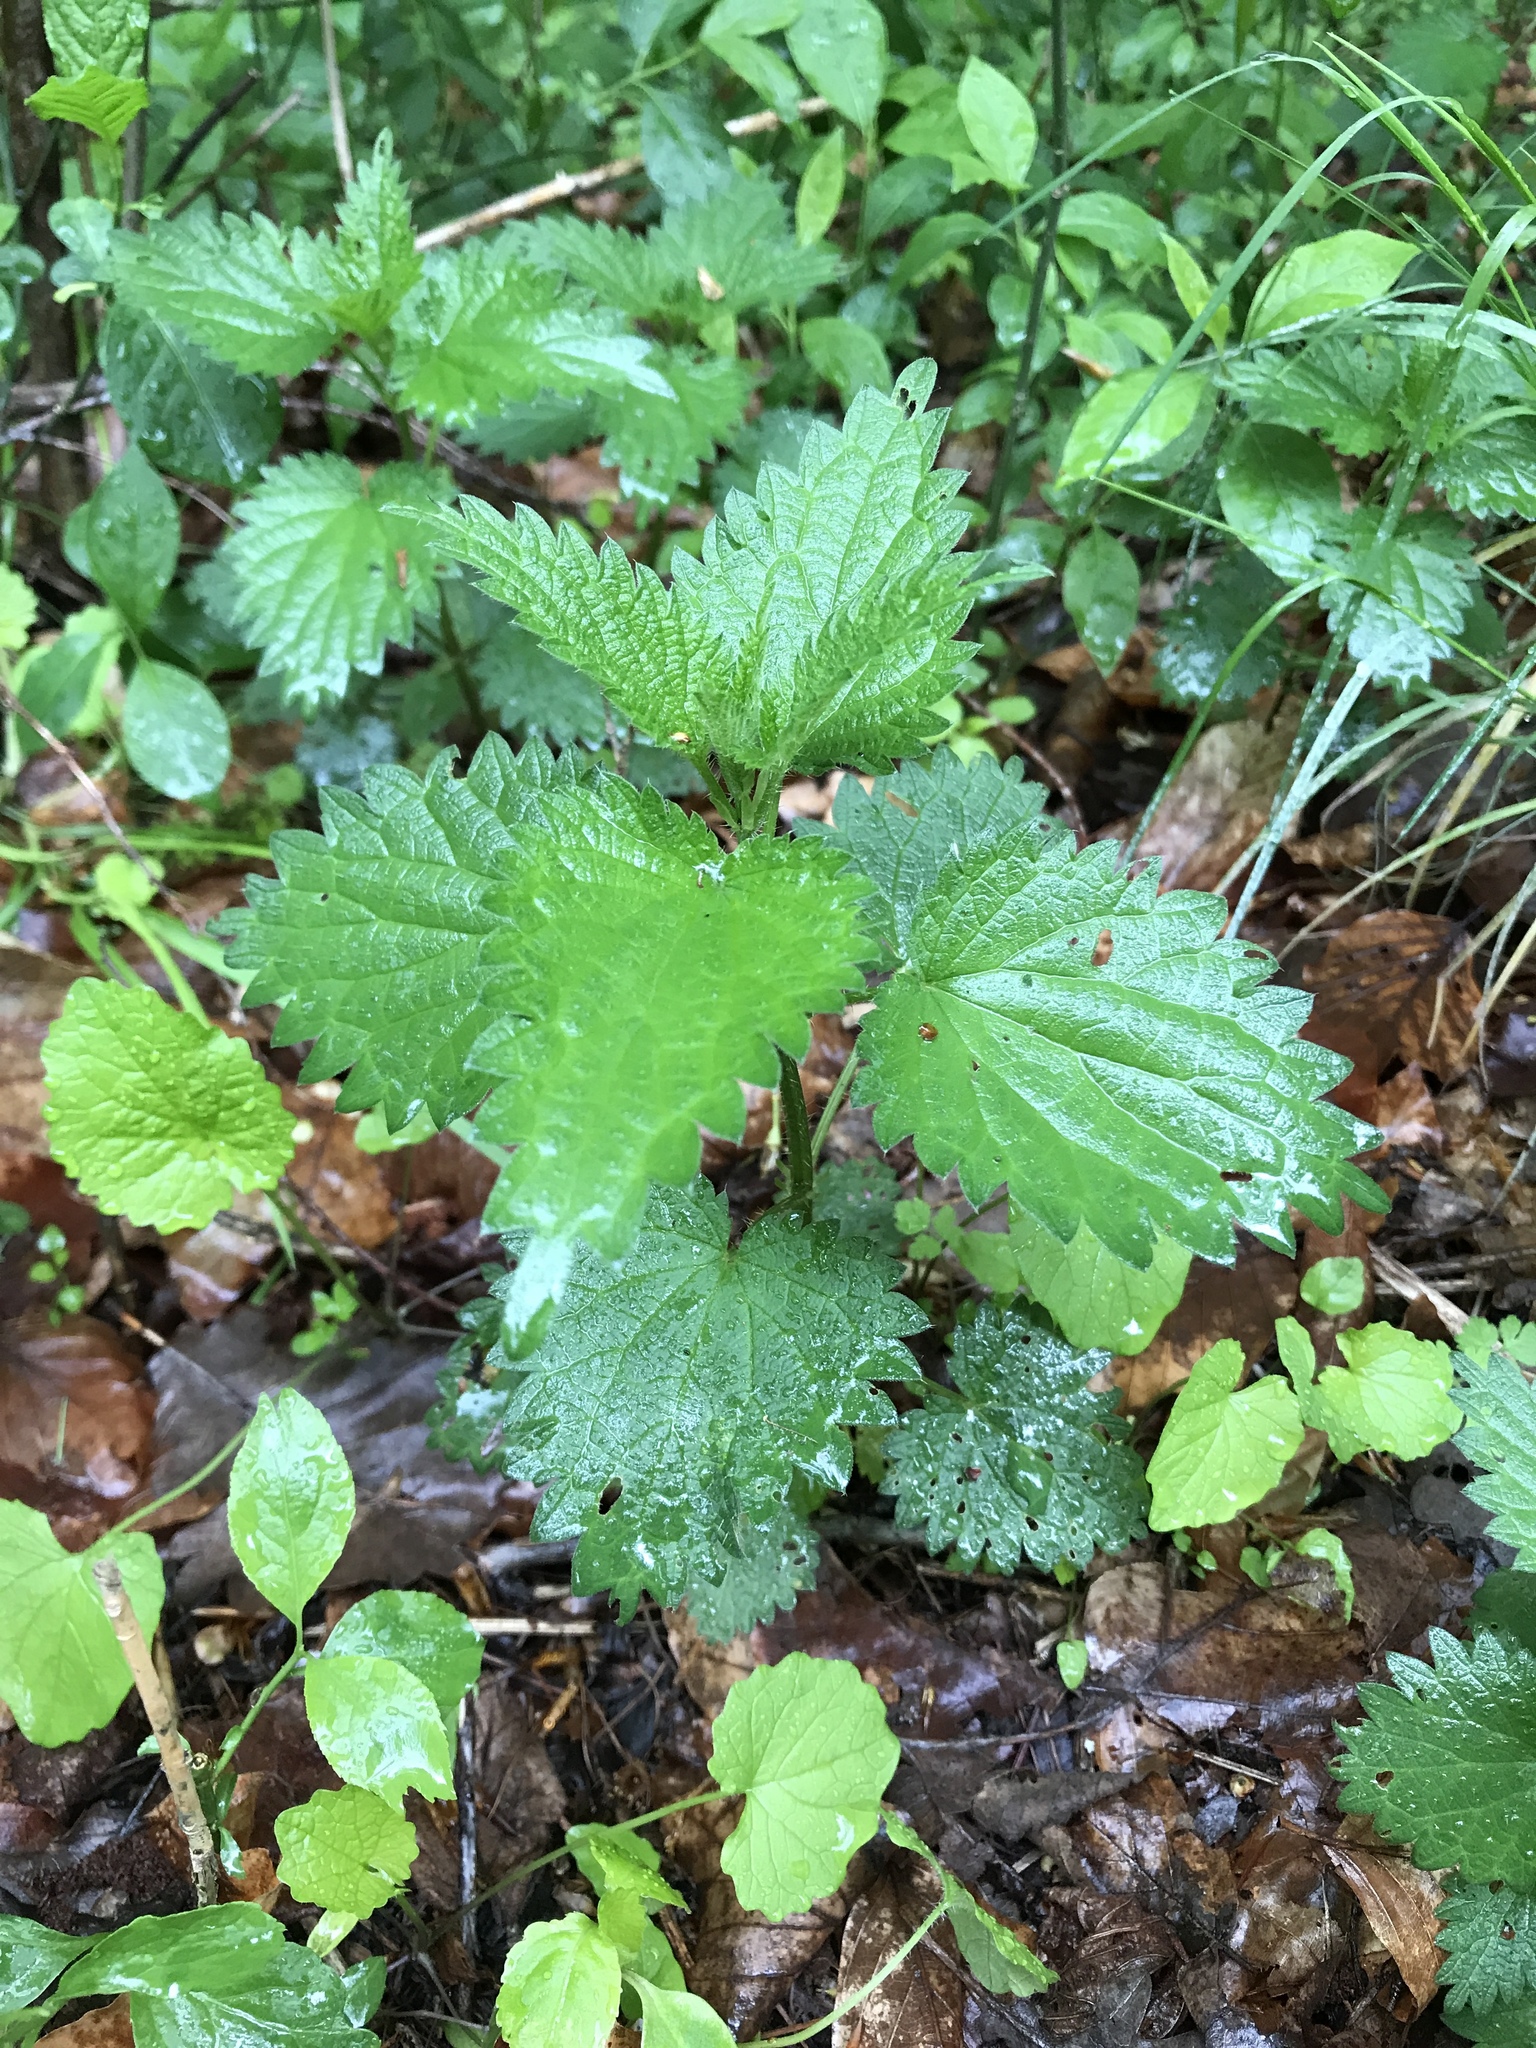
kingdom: Plantae
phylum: Tracheophyta
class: Magnoliopsida
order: Rosales
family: Urticaceae
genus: Urtica
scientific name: Urtica dioica
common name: Common nettle
